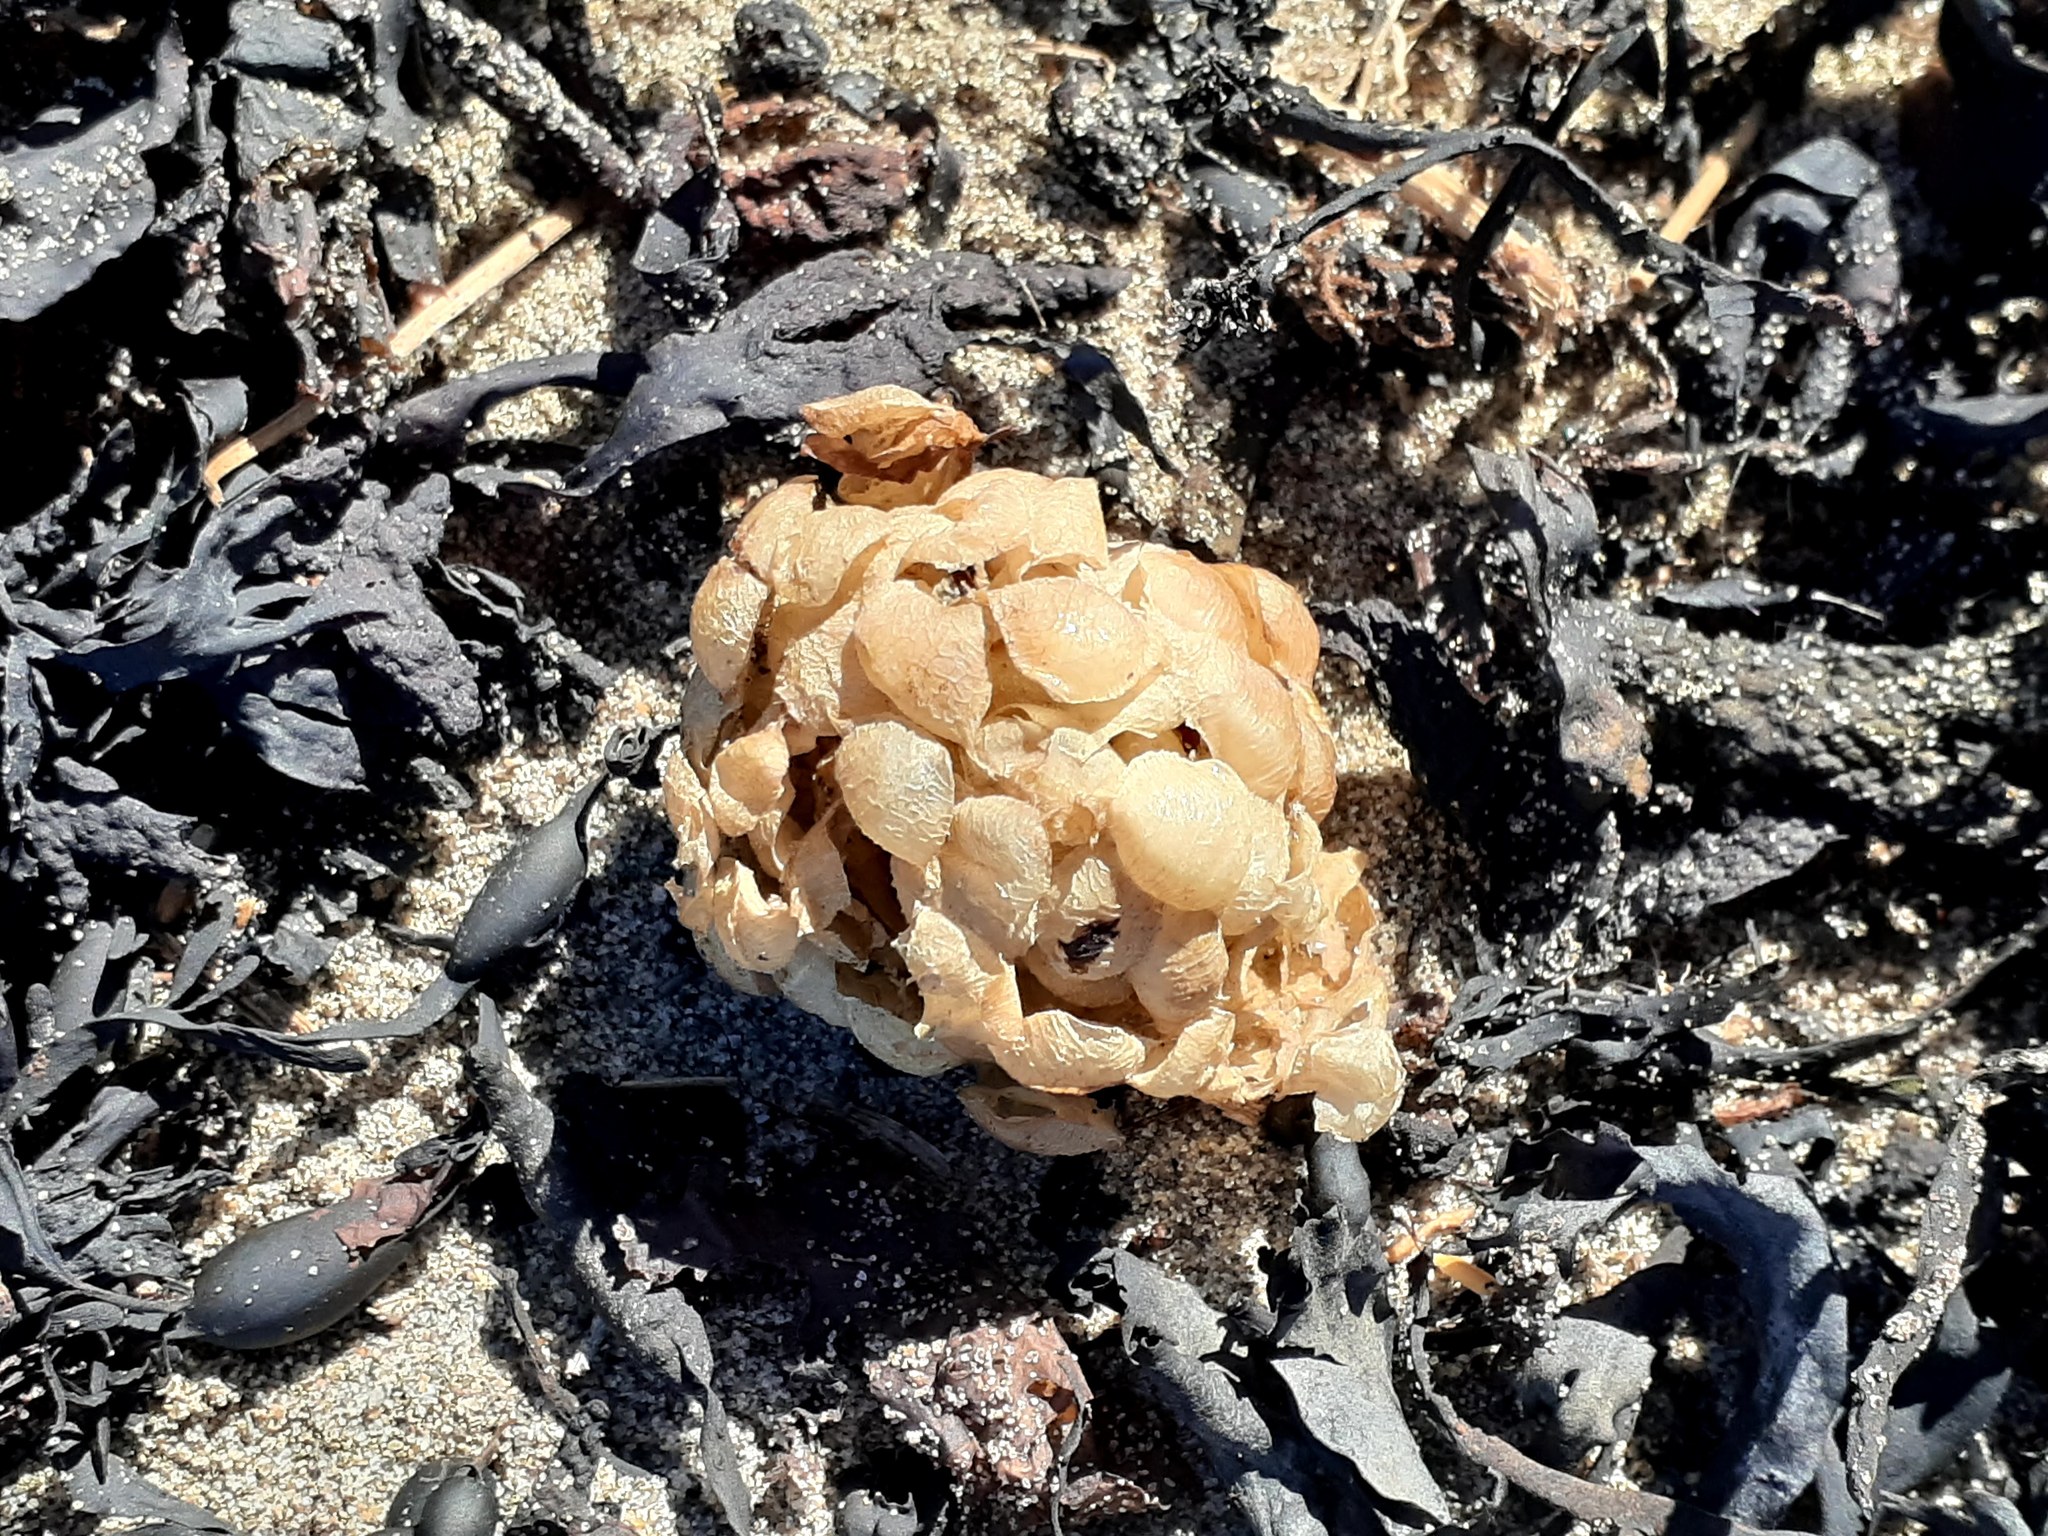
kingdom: Animalia
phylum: Mollusca
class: Gastropoda
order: Neogastropoda
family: Buccinidae
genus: Buccinum
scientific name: Buccinum undatum
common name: Common whelk
